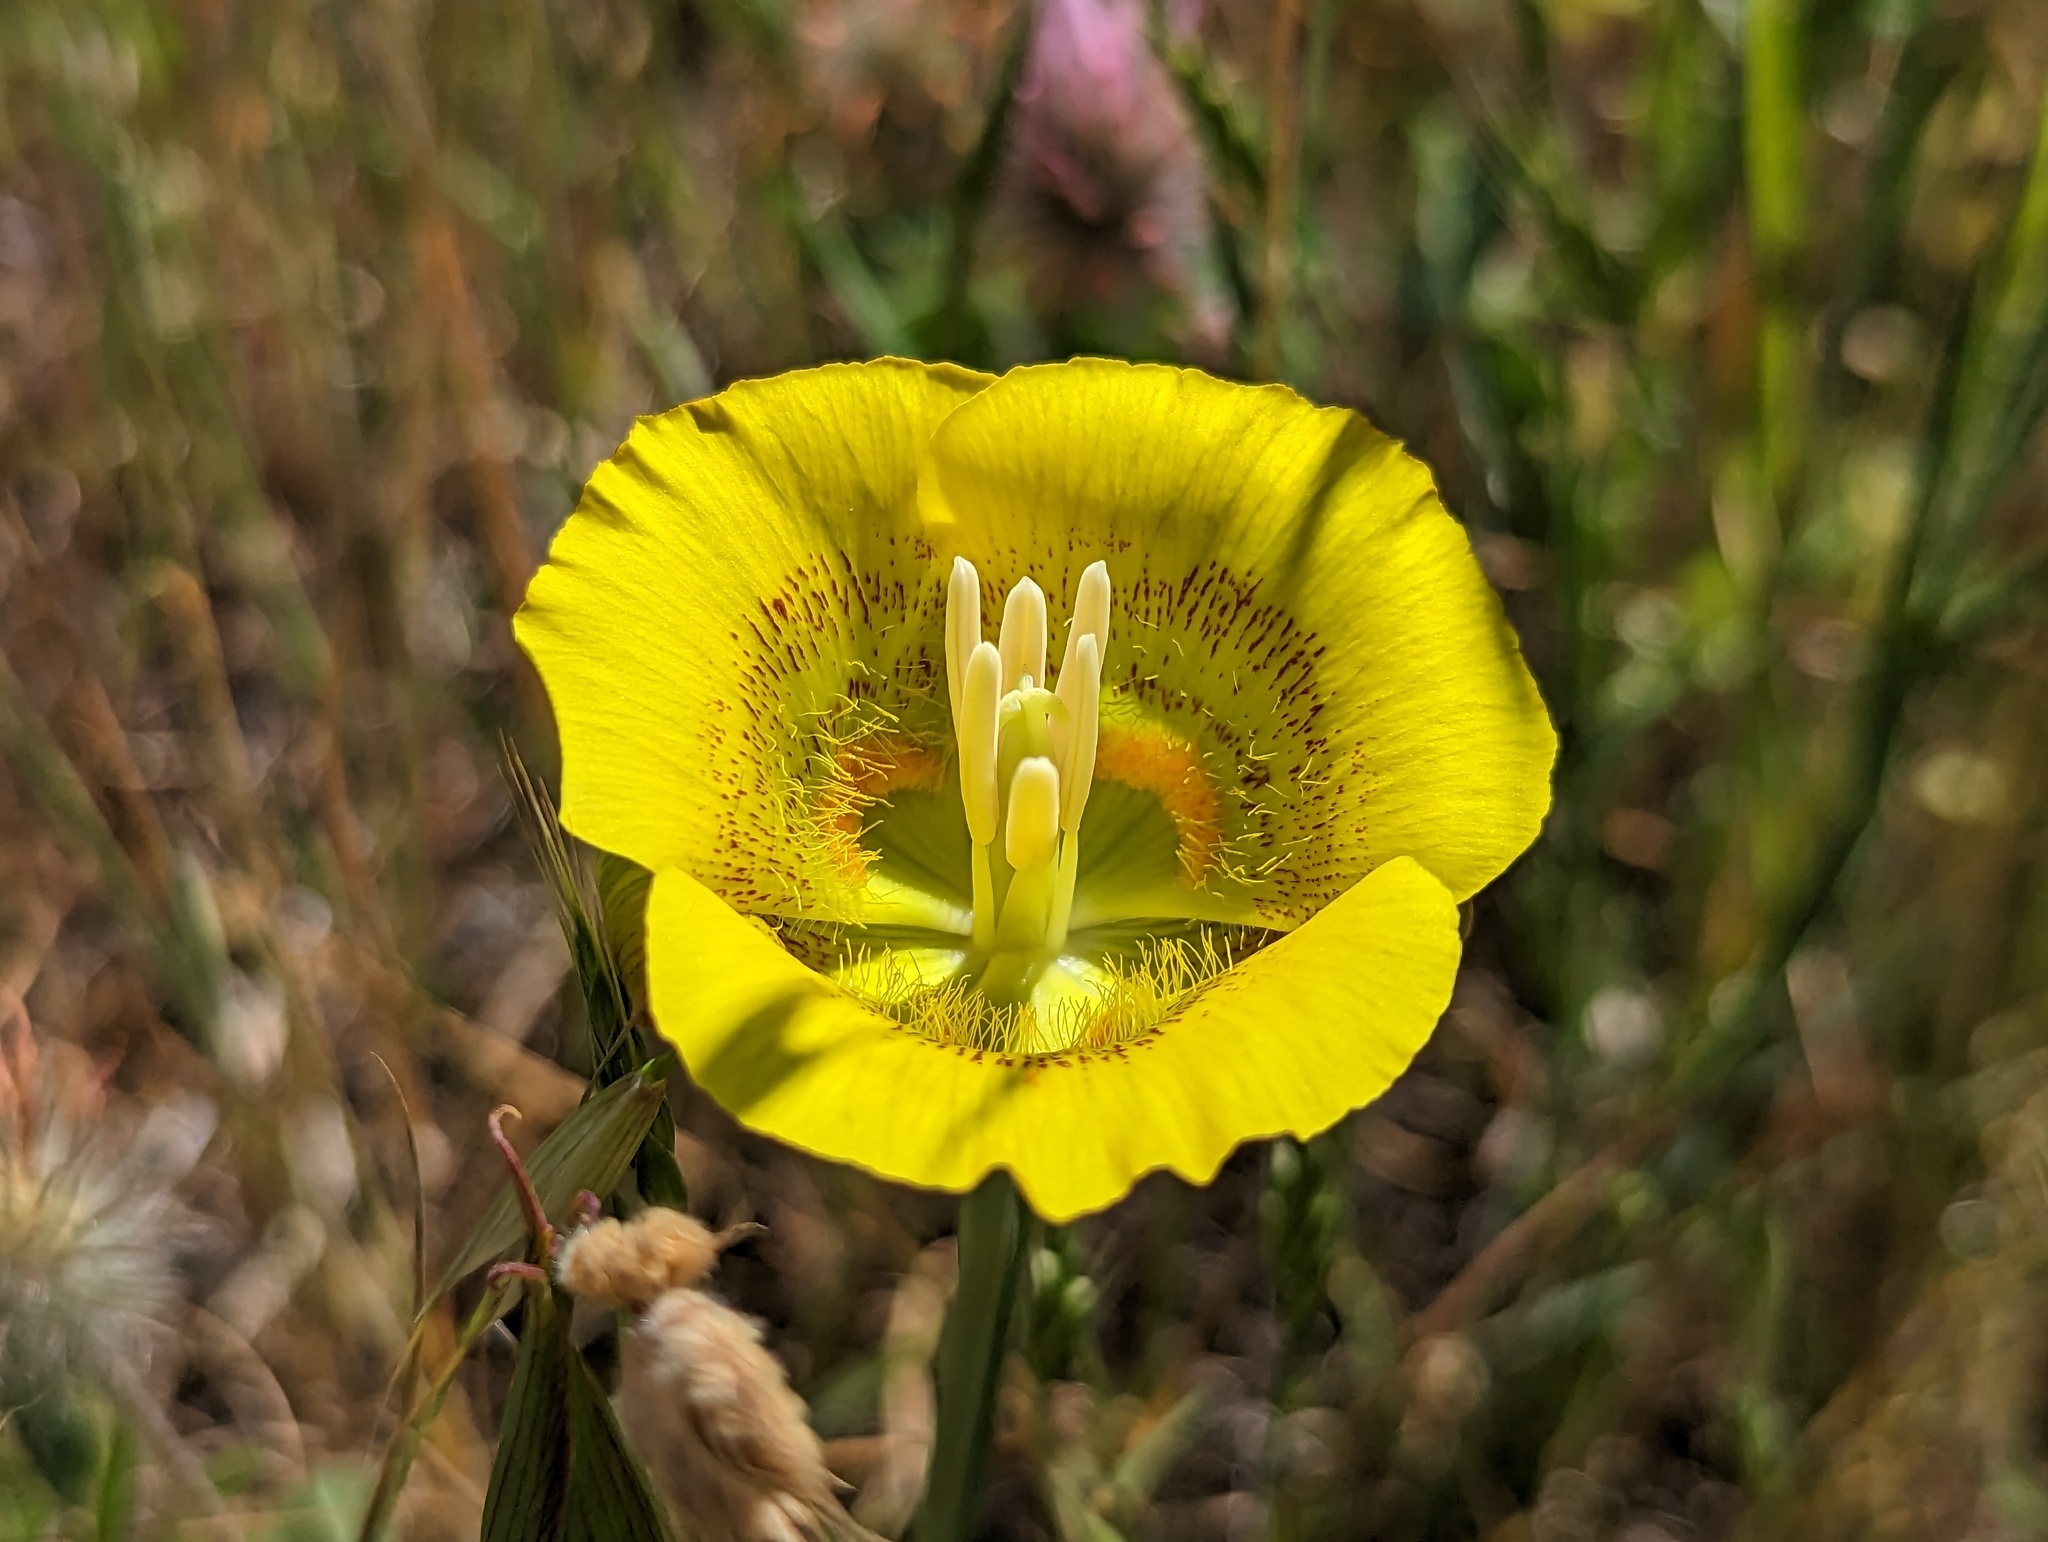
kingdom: Plantae
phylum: Tracheophyta
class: Liliopsida
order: Liliales
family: Liliaceae
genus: Calochortus
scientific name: Calochortus luteus
